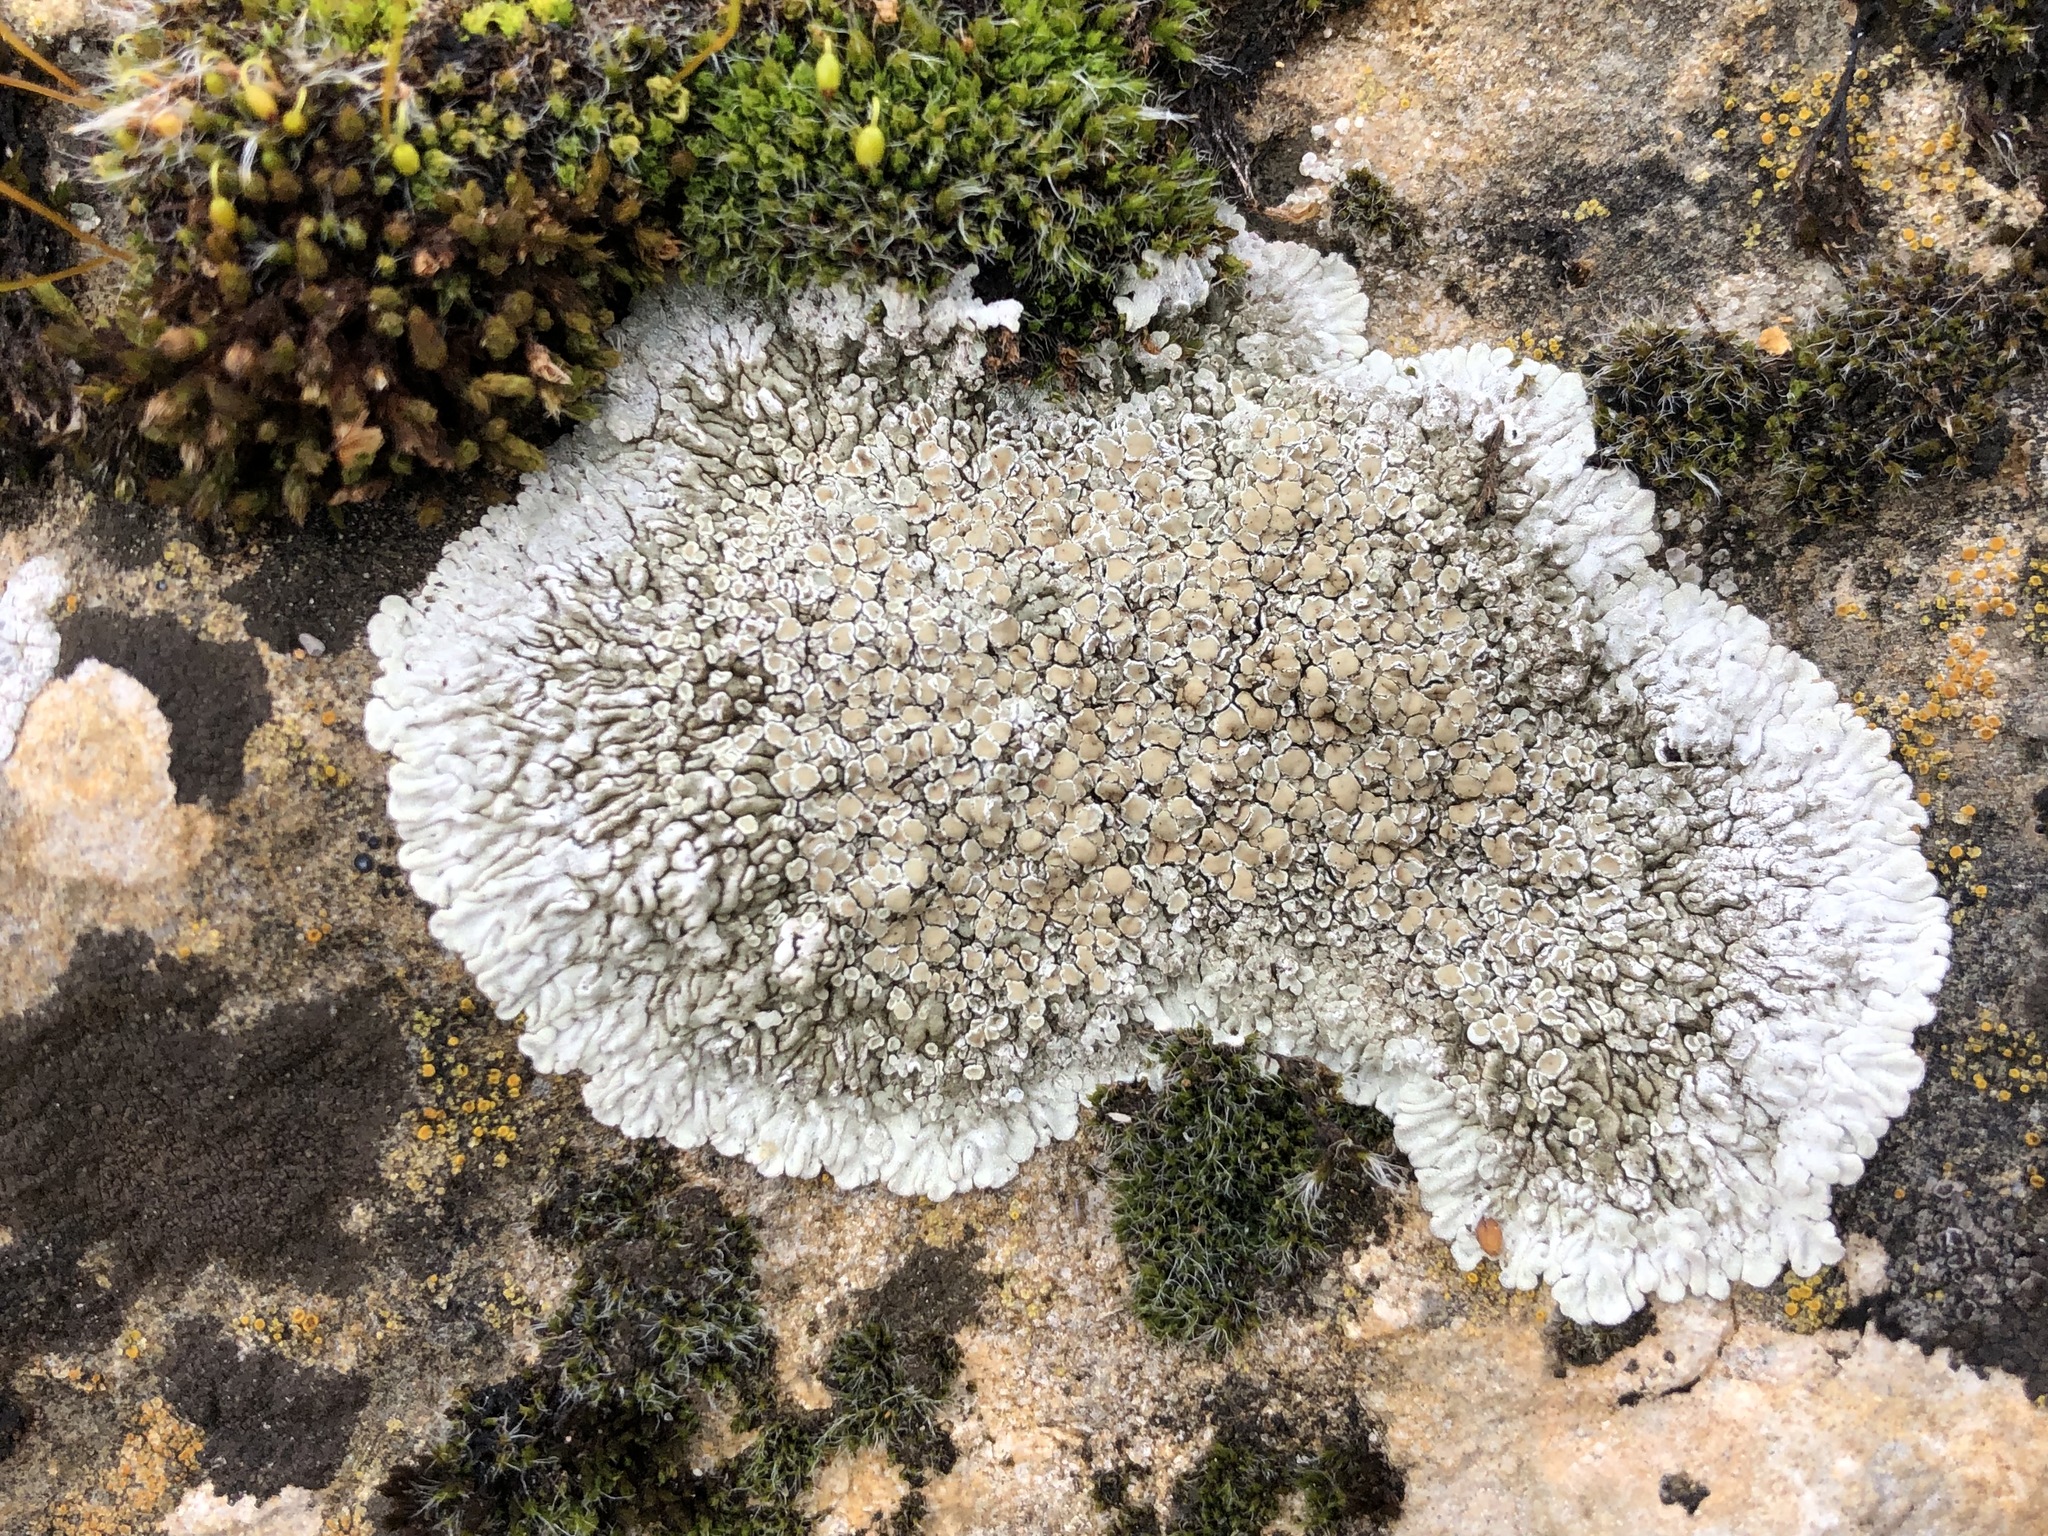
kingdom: Fungi
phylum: Ascomycota
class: Lecanoromycetes
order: Lecanorales
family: Lecanoraceae
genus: Protoparmeliopsis
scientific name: Protoparmeliopsis muralis
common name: Stonewall rim lichen
